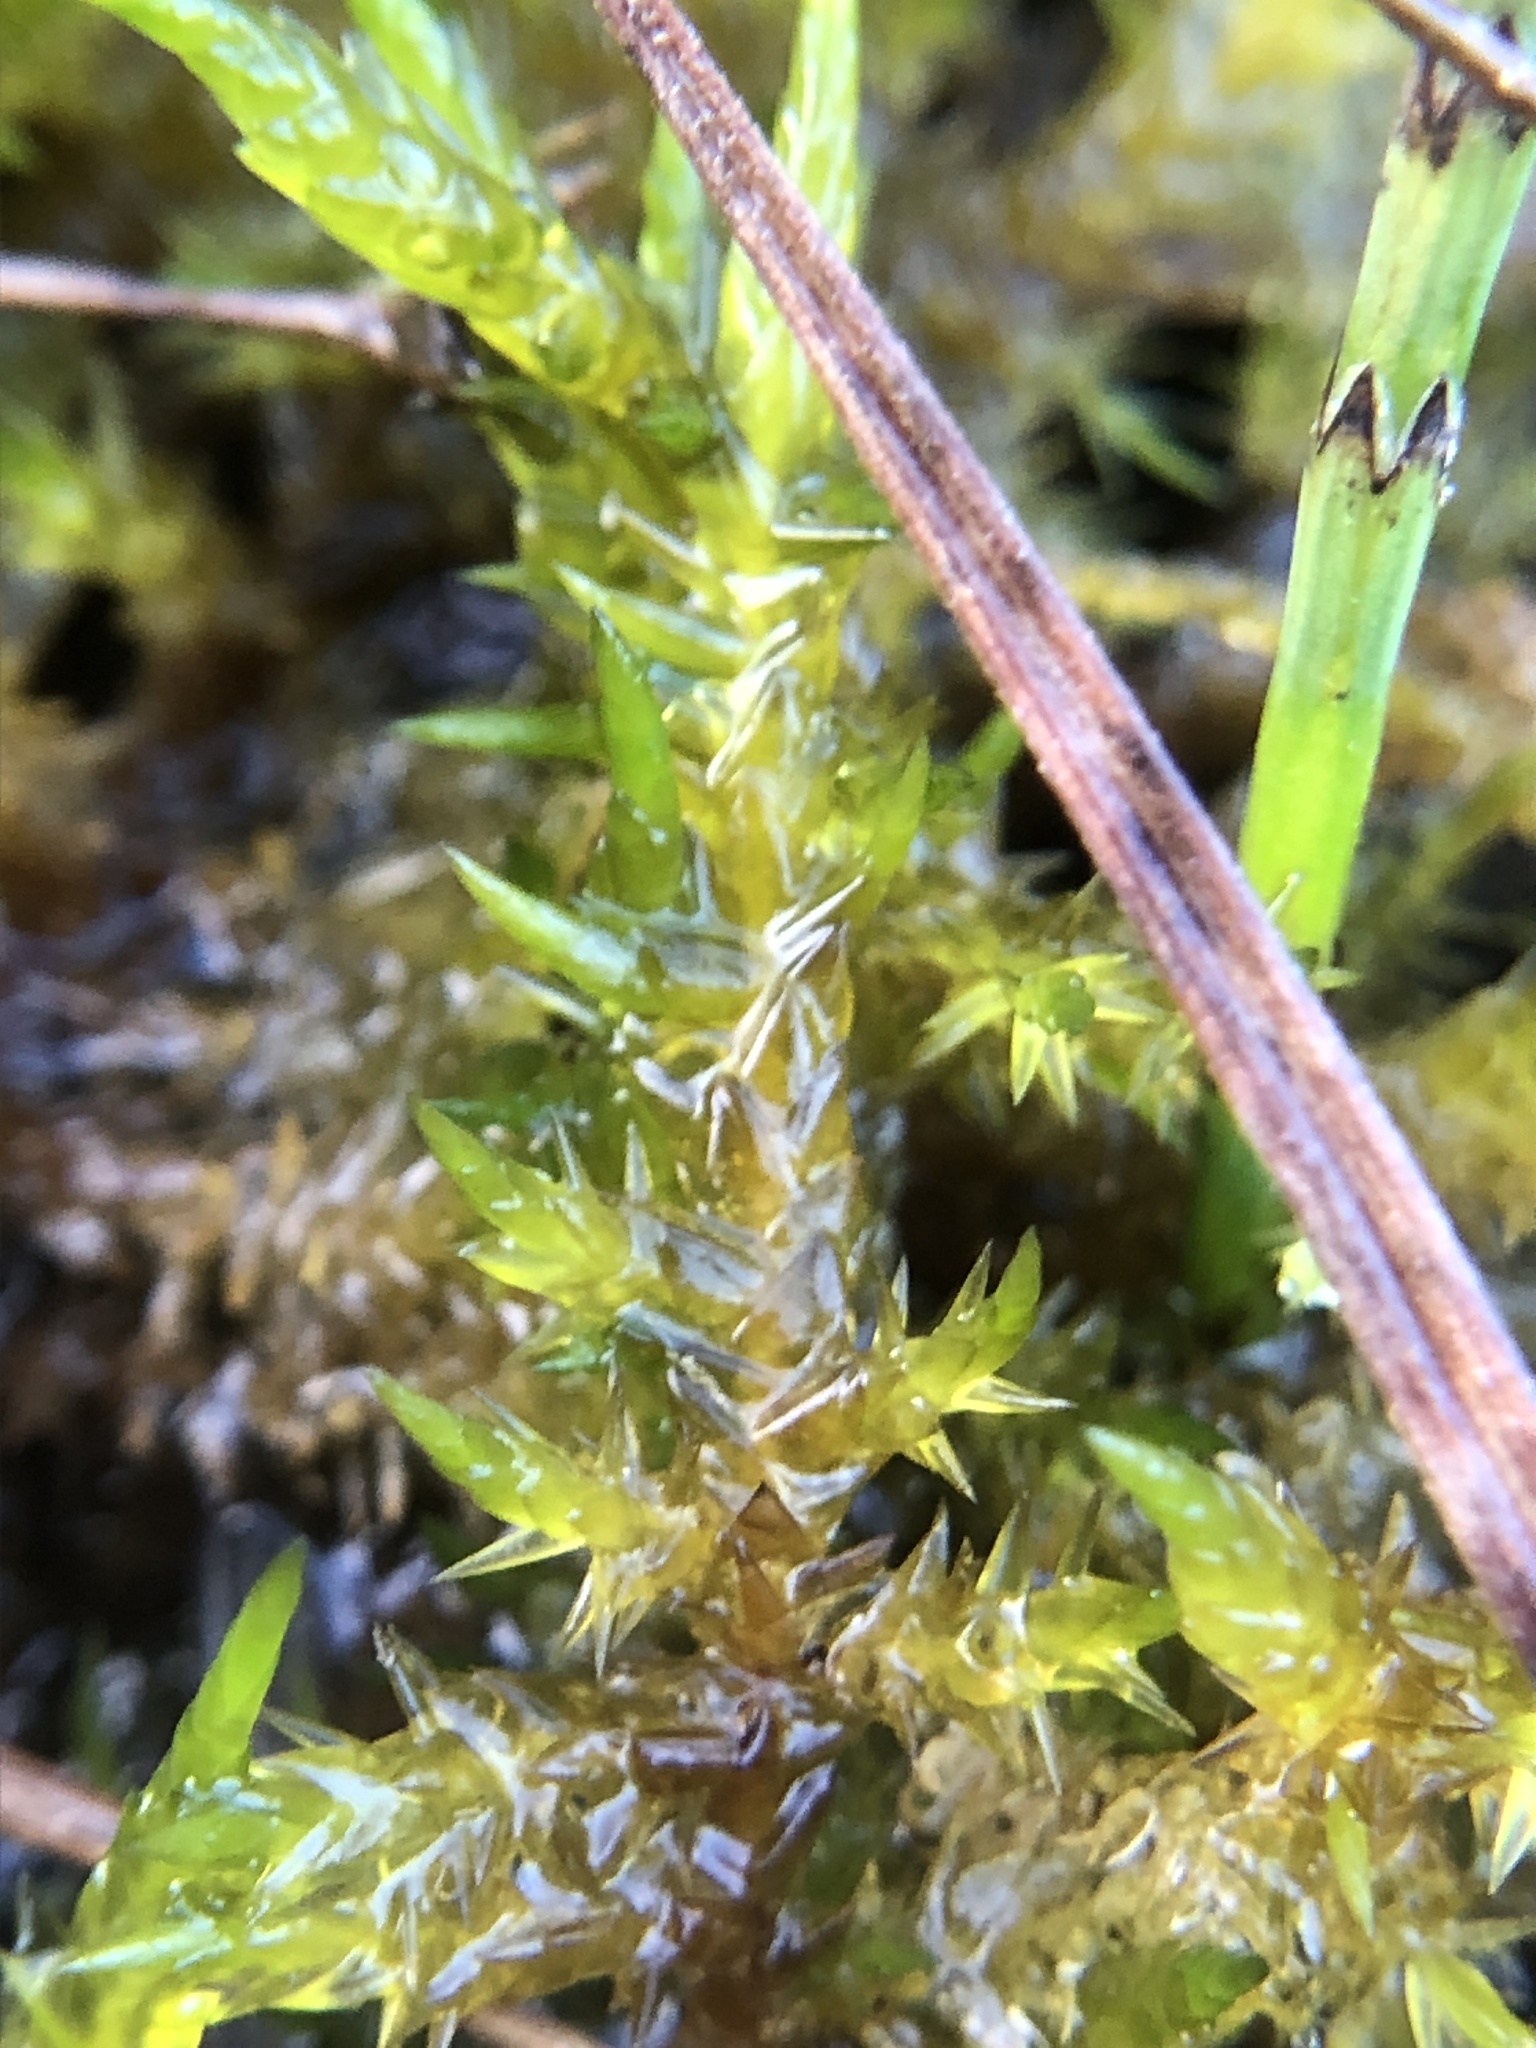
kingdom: Plantae
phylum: Bryophyta
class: Bryopsida
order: Hypnales
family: Pylaisiaceae
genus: Calliergonella
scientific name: Calliergonella cuspidata
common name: Common large wetland moss
